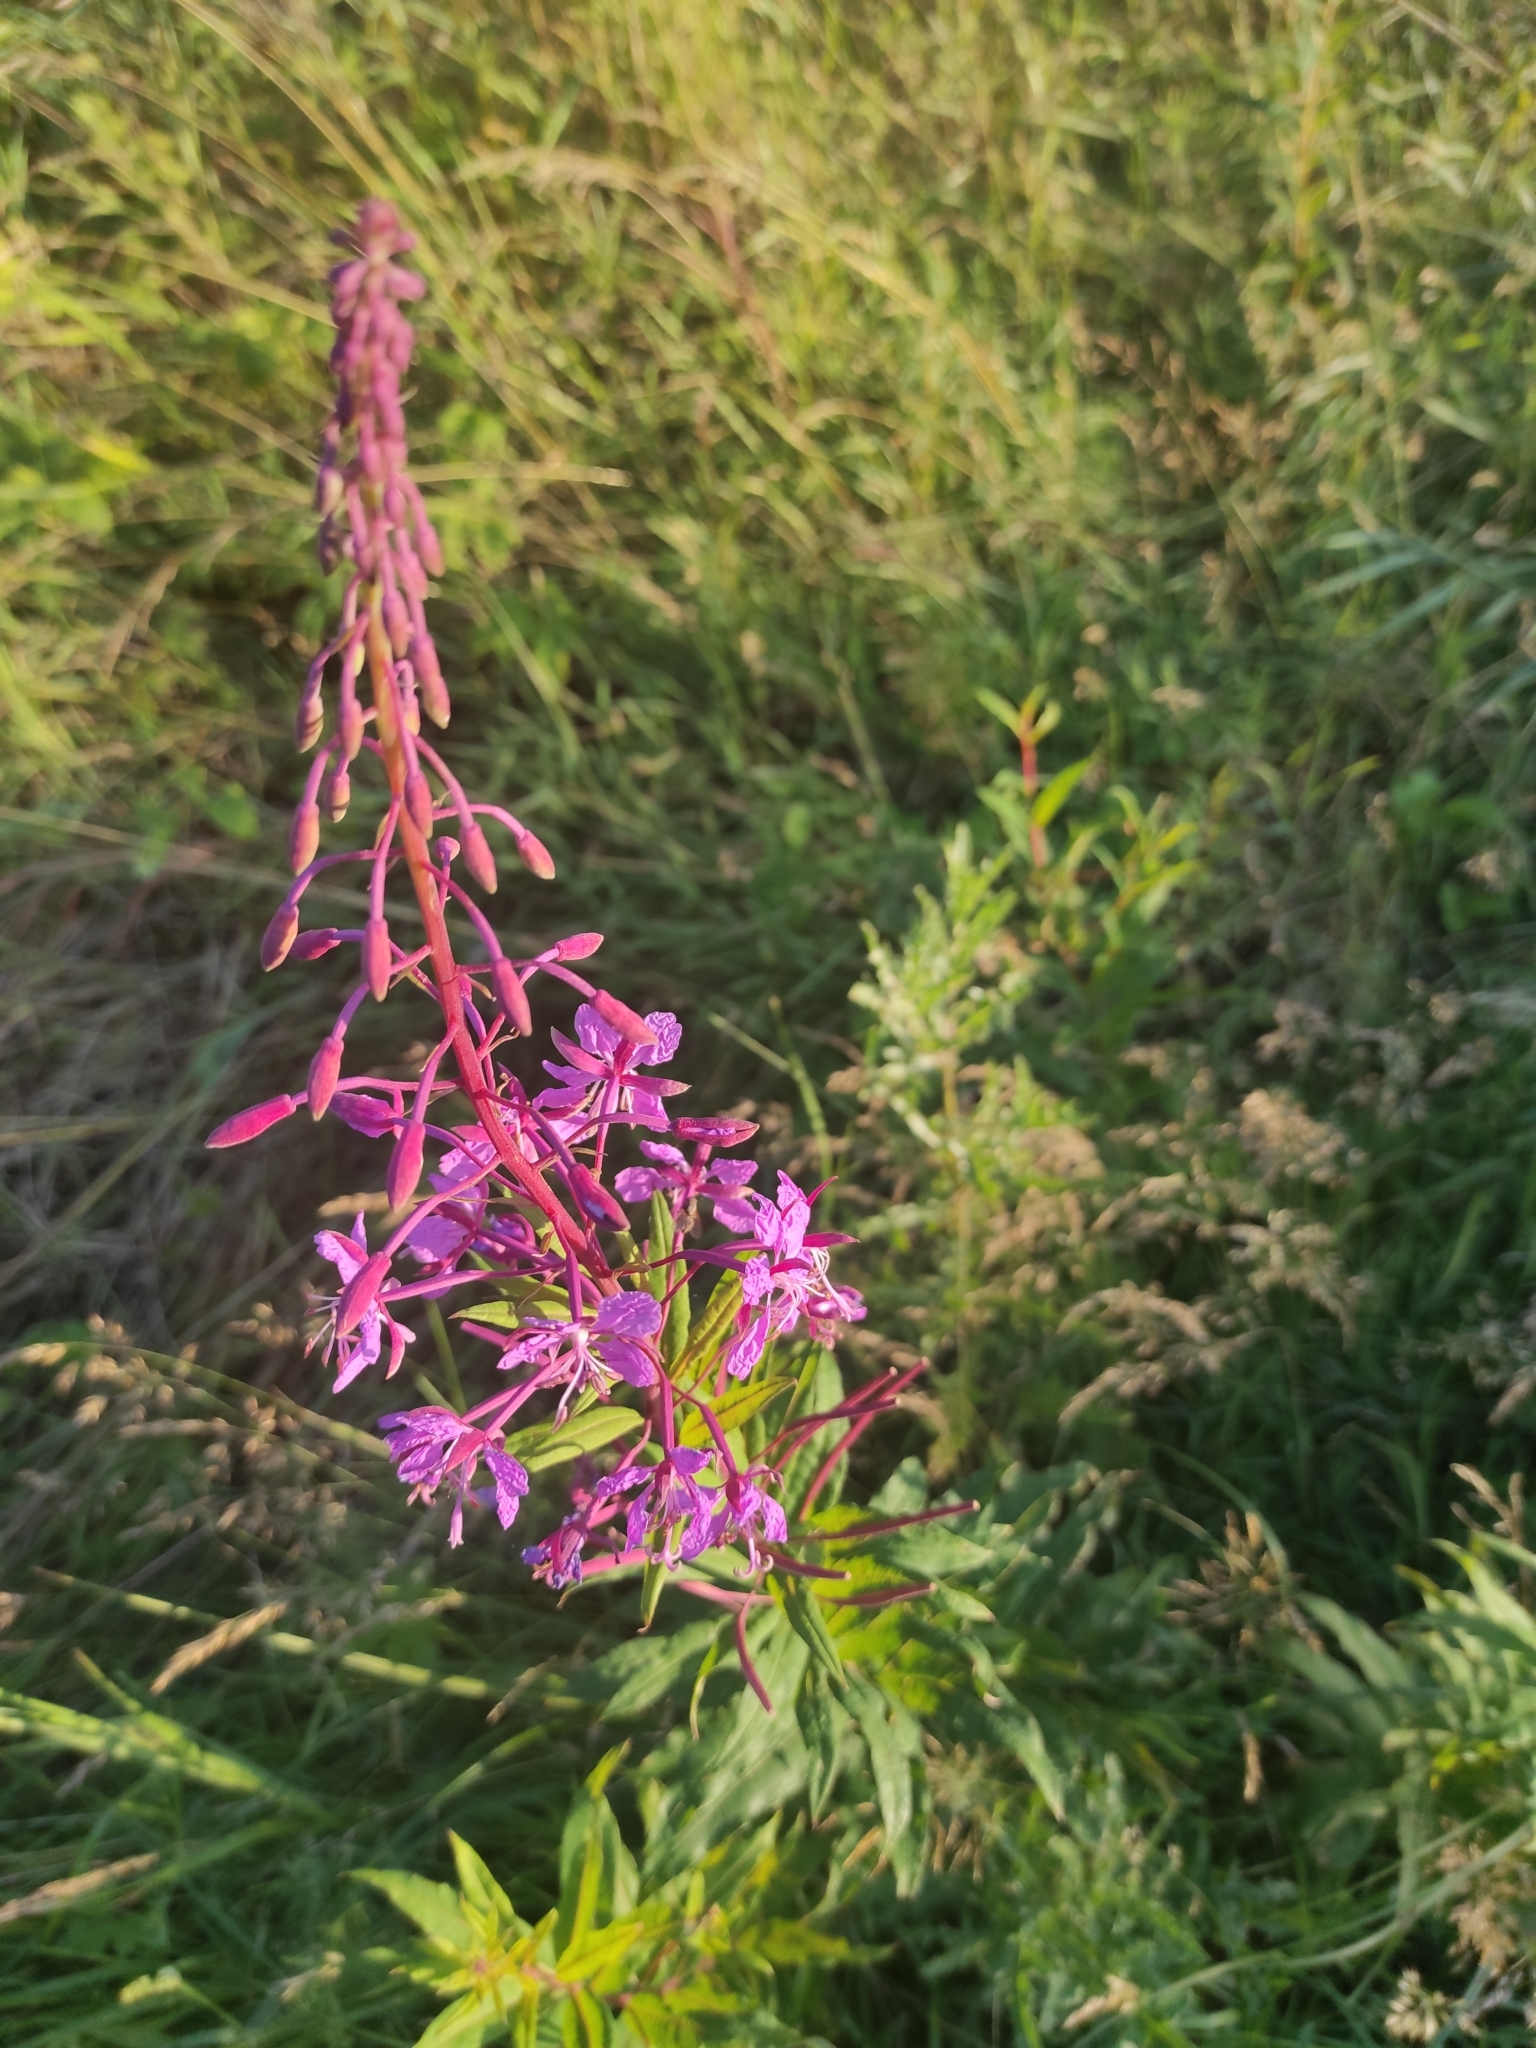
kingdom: Plantae
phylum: Tracheophyta
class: Magnoliopsida
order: Myrtales
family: Onagraceae
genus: Chamaenerion
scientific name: Chamaenerion angustifolium
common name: Fireweed
